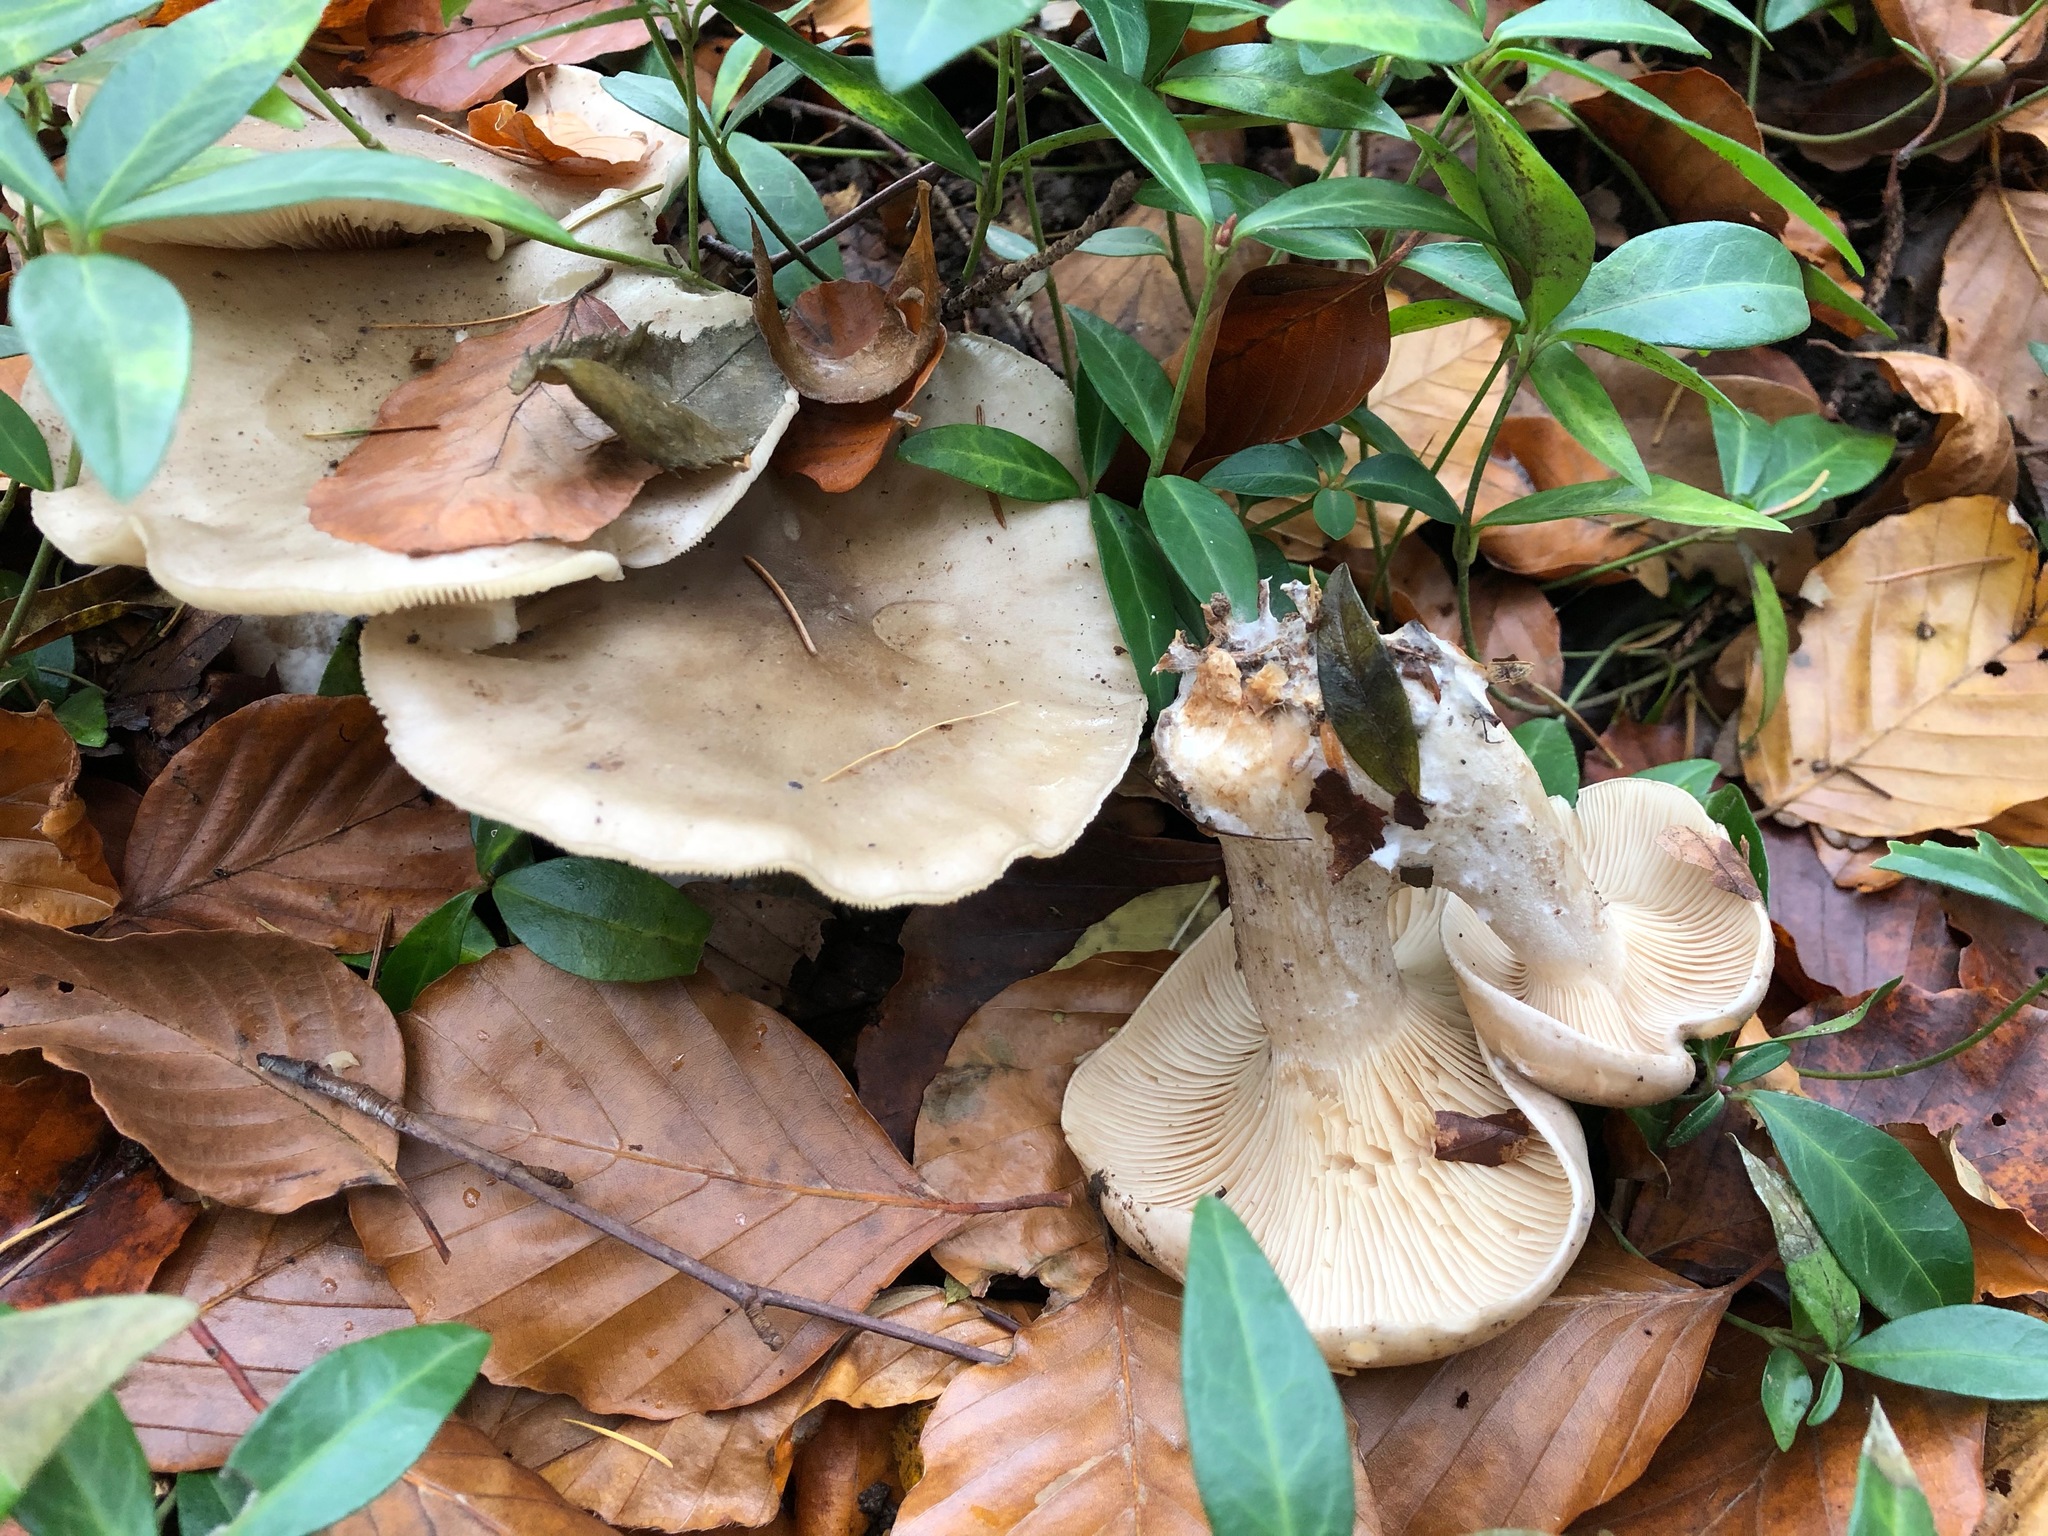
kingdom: Fungi
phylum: Basidiomycota
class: Agaricomycetes
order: Agaricales
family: Tricholomataceae
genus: Clitocybe
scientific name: Clitocybe nebularis
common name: Clouded agaric
